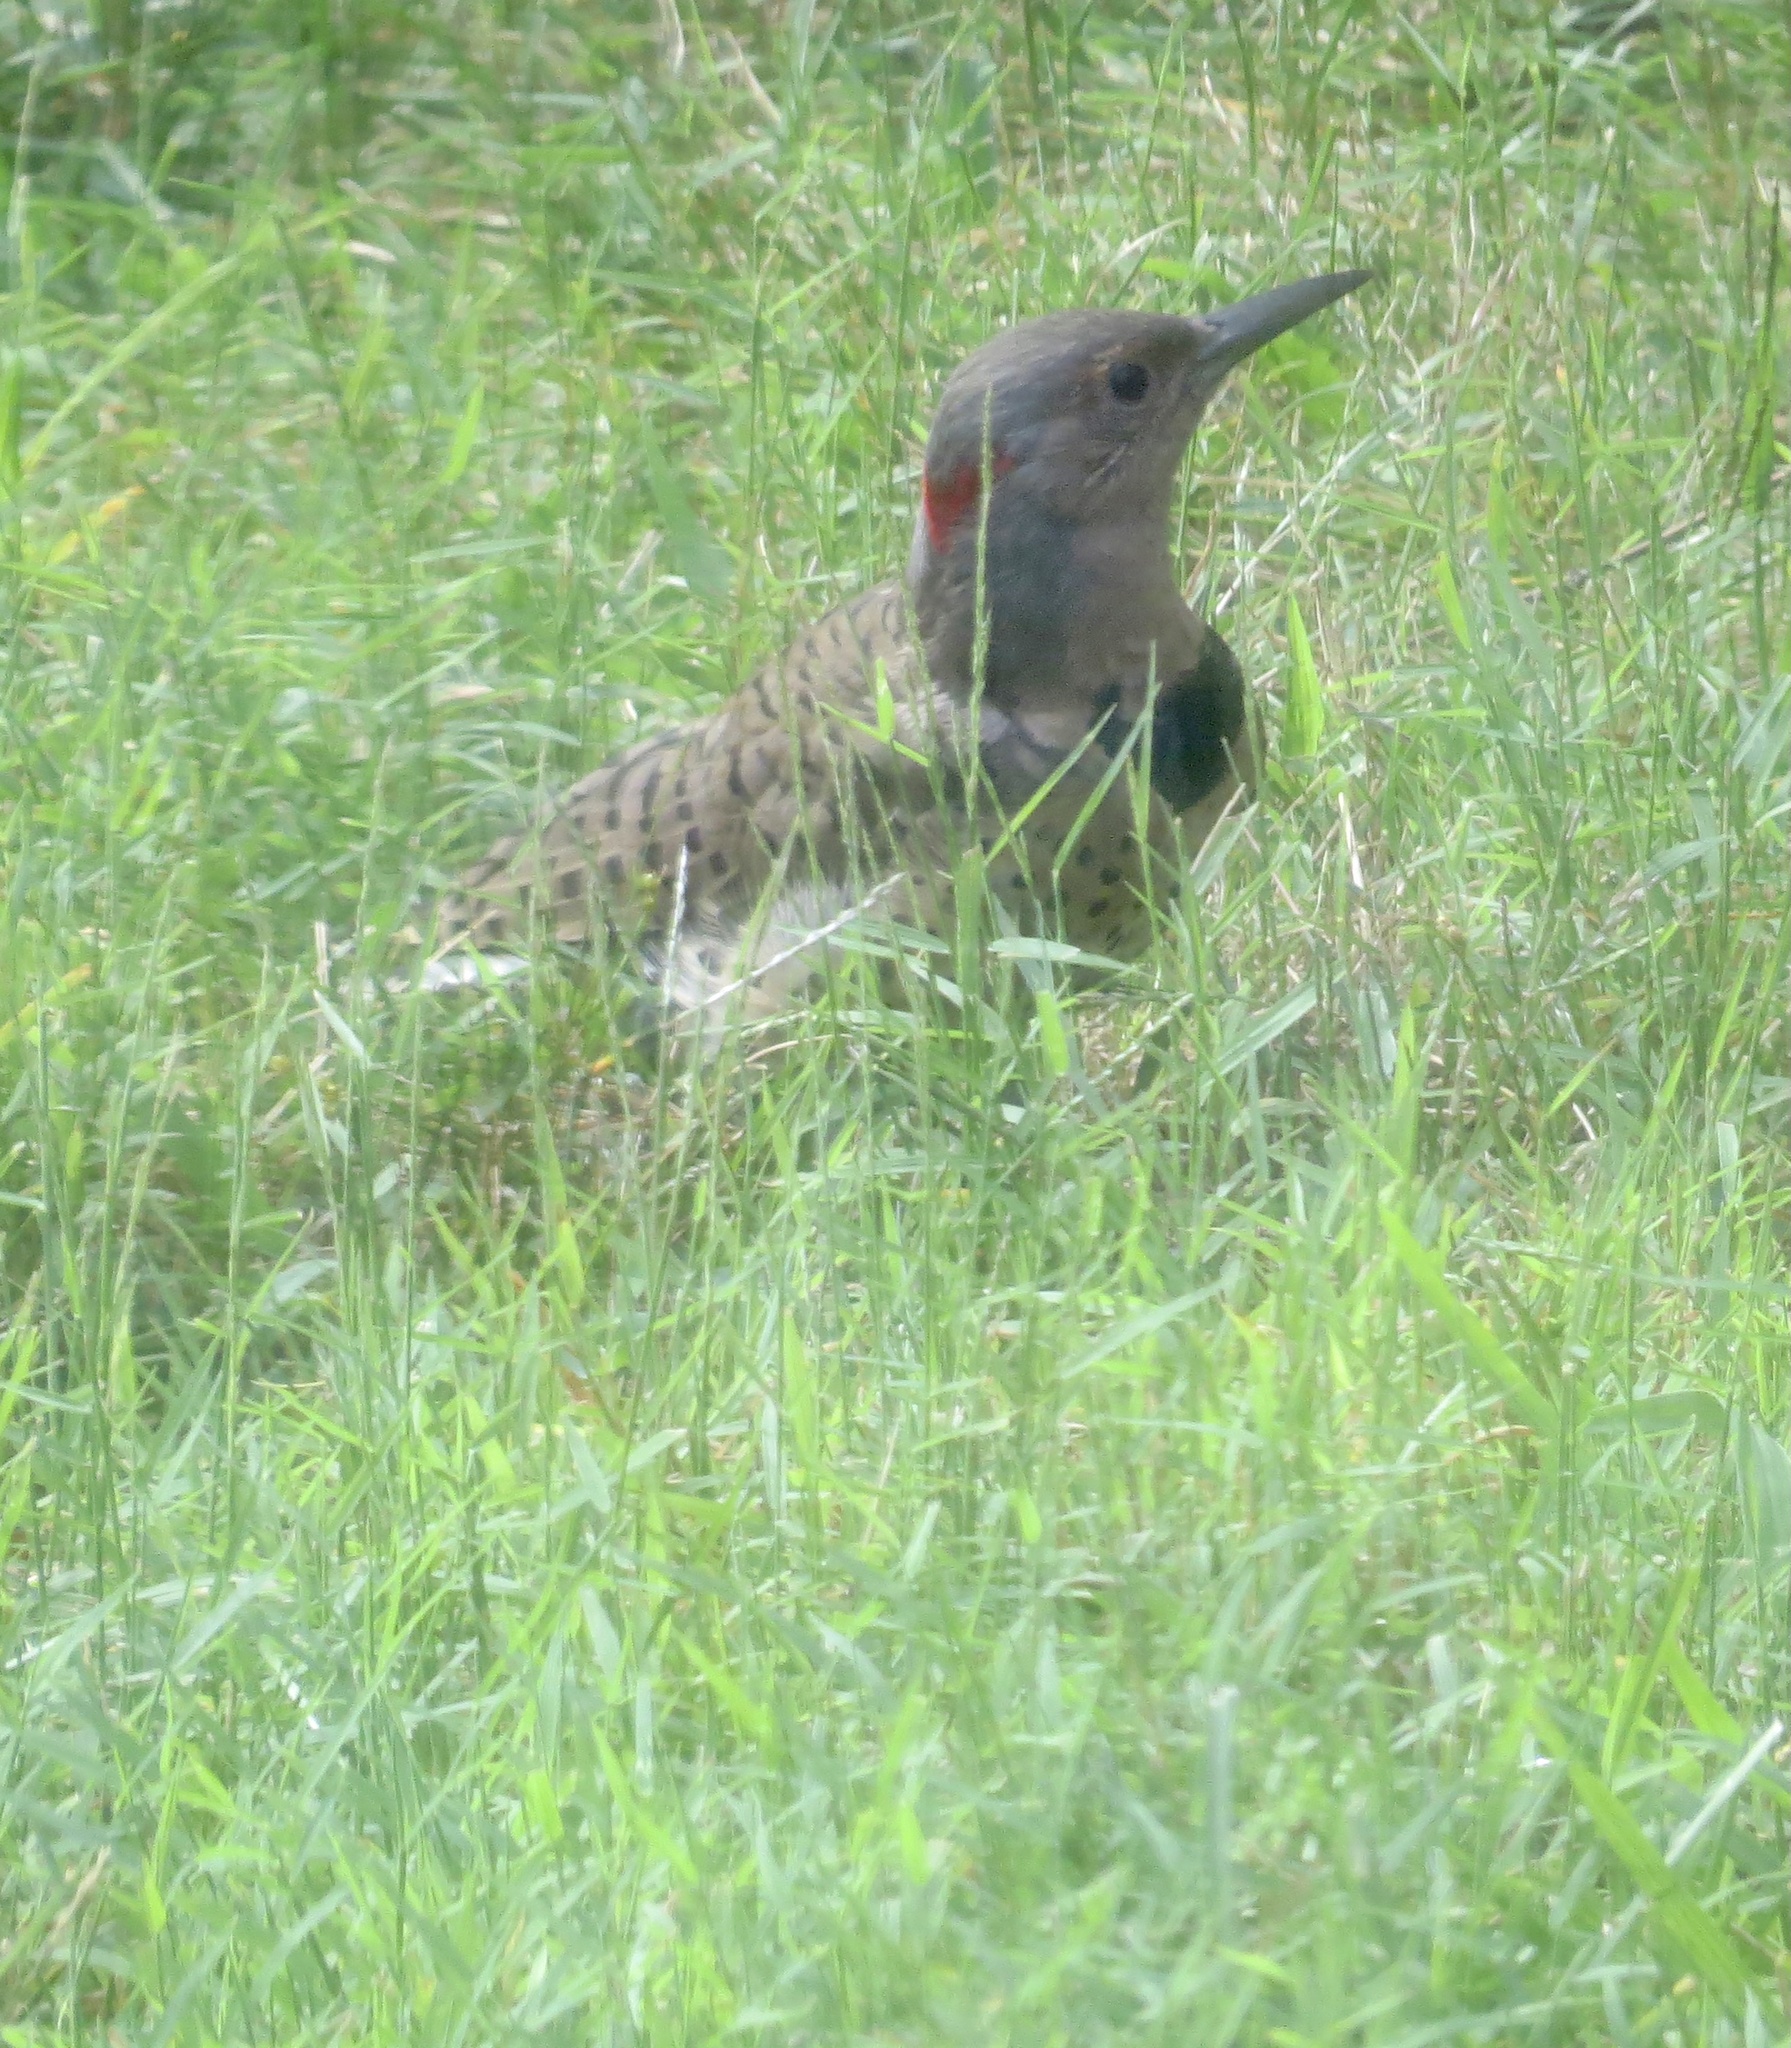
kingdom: Animalia
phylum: Chordata
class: Aves
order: Piciformes
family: Picidae
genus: Colaptes
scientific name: Colaptes auratus
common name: Northern flicker
